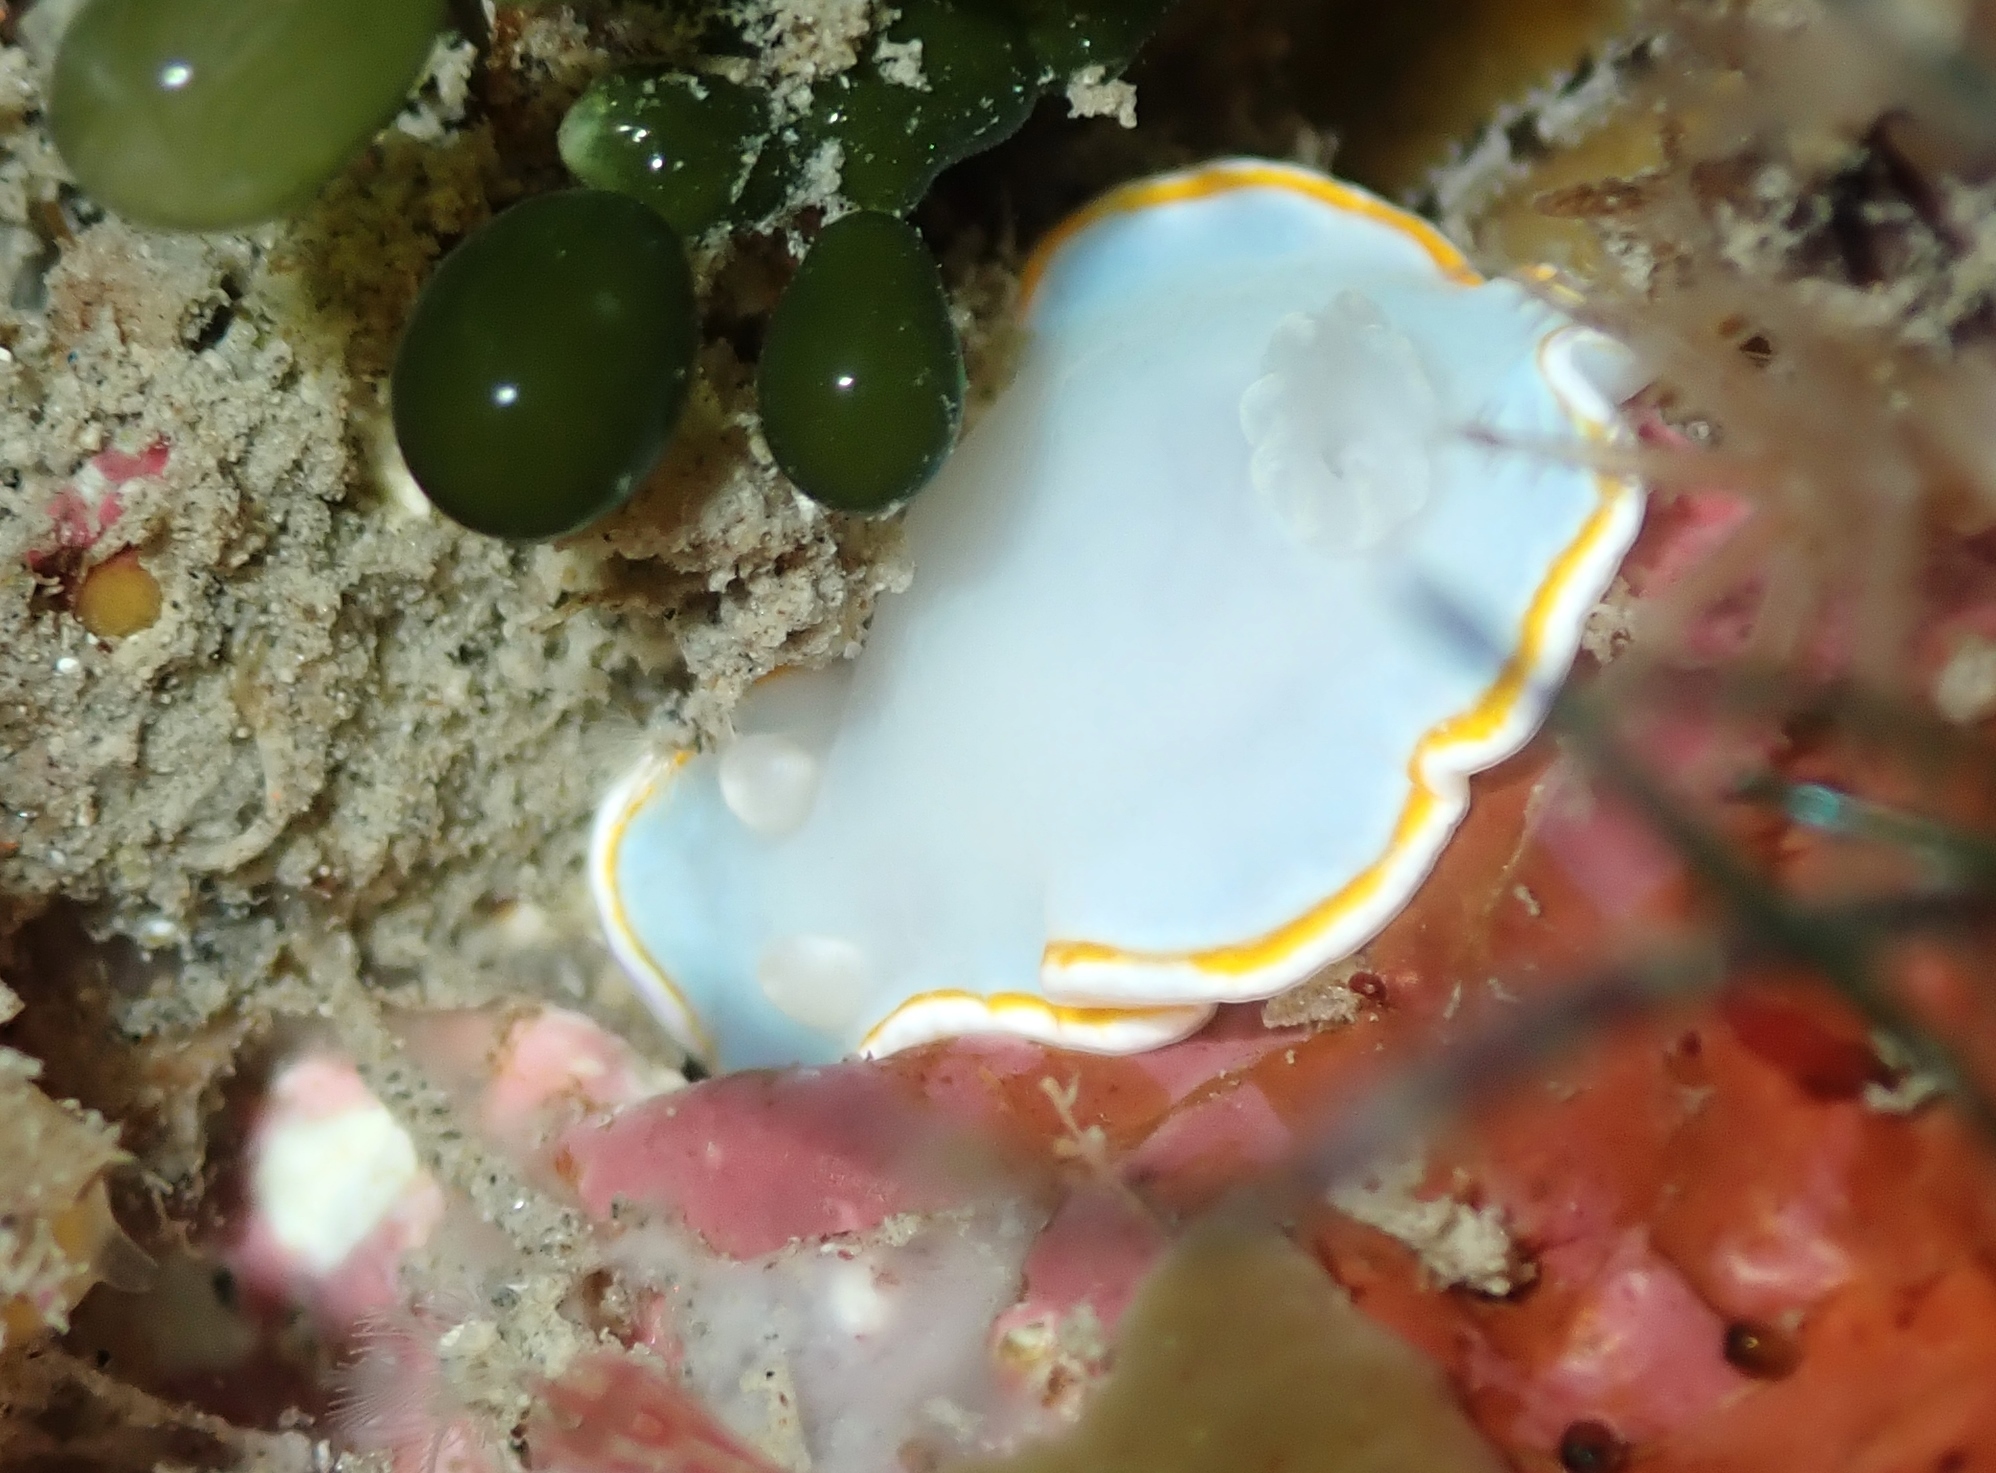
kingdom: Animalia
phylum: Mollusca
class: Gastropoda
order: Nudibranchia
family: Chromodorididae
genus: Goniobranchus
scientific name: Goniobranchus aureomarginatus
